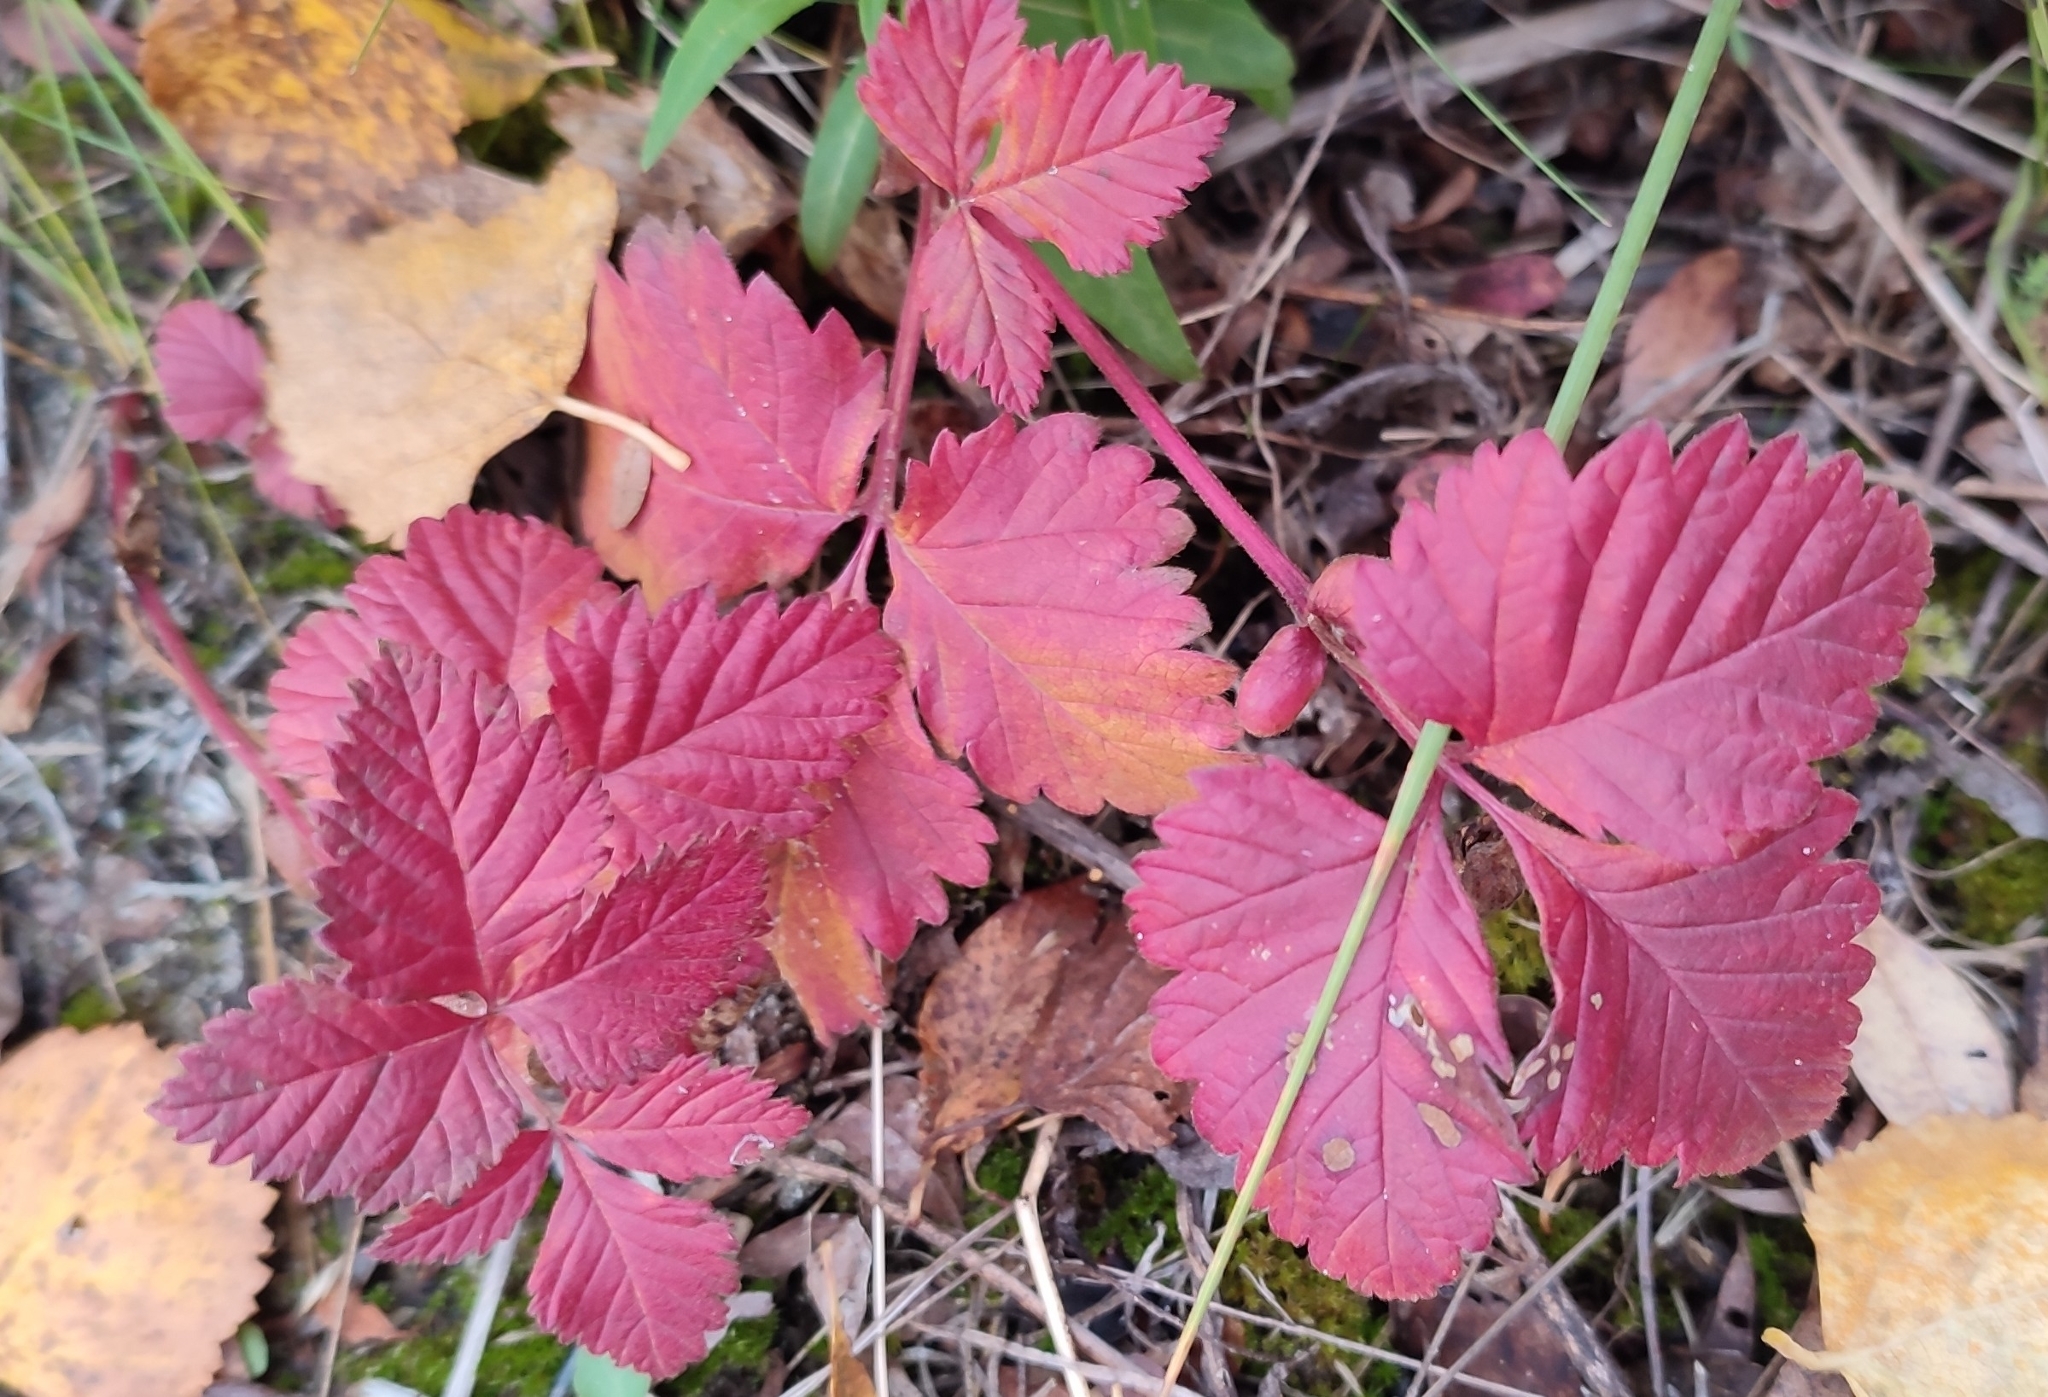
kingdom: Plantae
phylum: Tracheophyta
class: Magnoliopsida
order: Rosales
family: Rosaceae
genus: Rubus
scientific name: Rubus arcticus
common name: Arctic bramble
